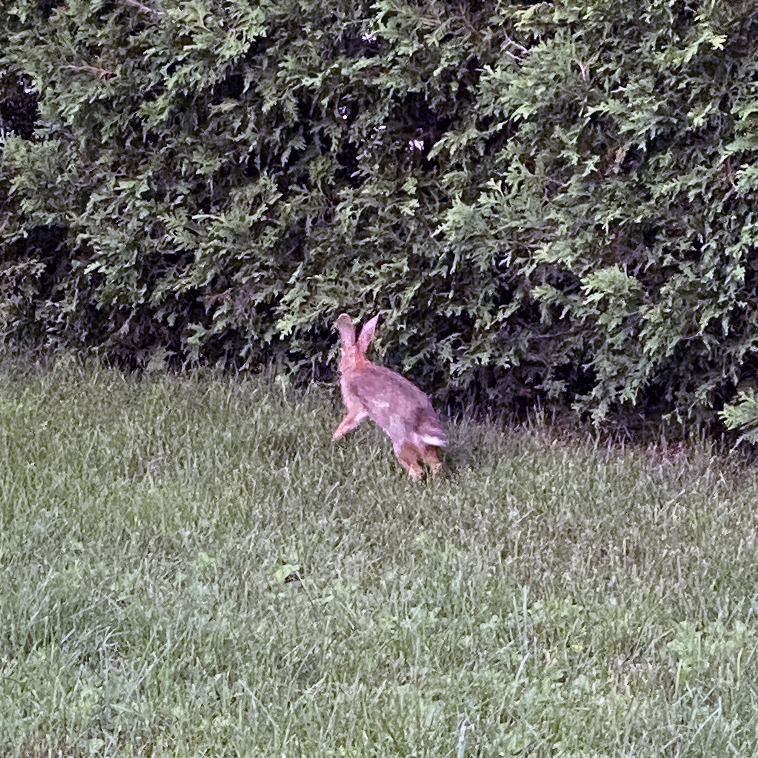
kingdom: Animalia
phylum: Chordata
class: Mammalia
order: Lagomorpha
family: Leporidae
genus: Sylvilagus
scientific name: Sylvilagus floridanus
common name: Eastern cottontail
